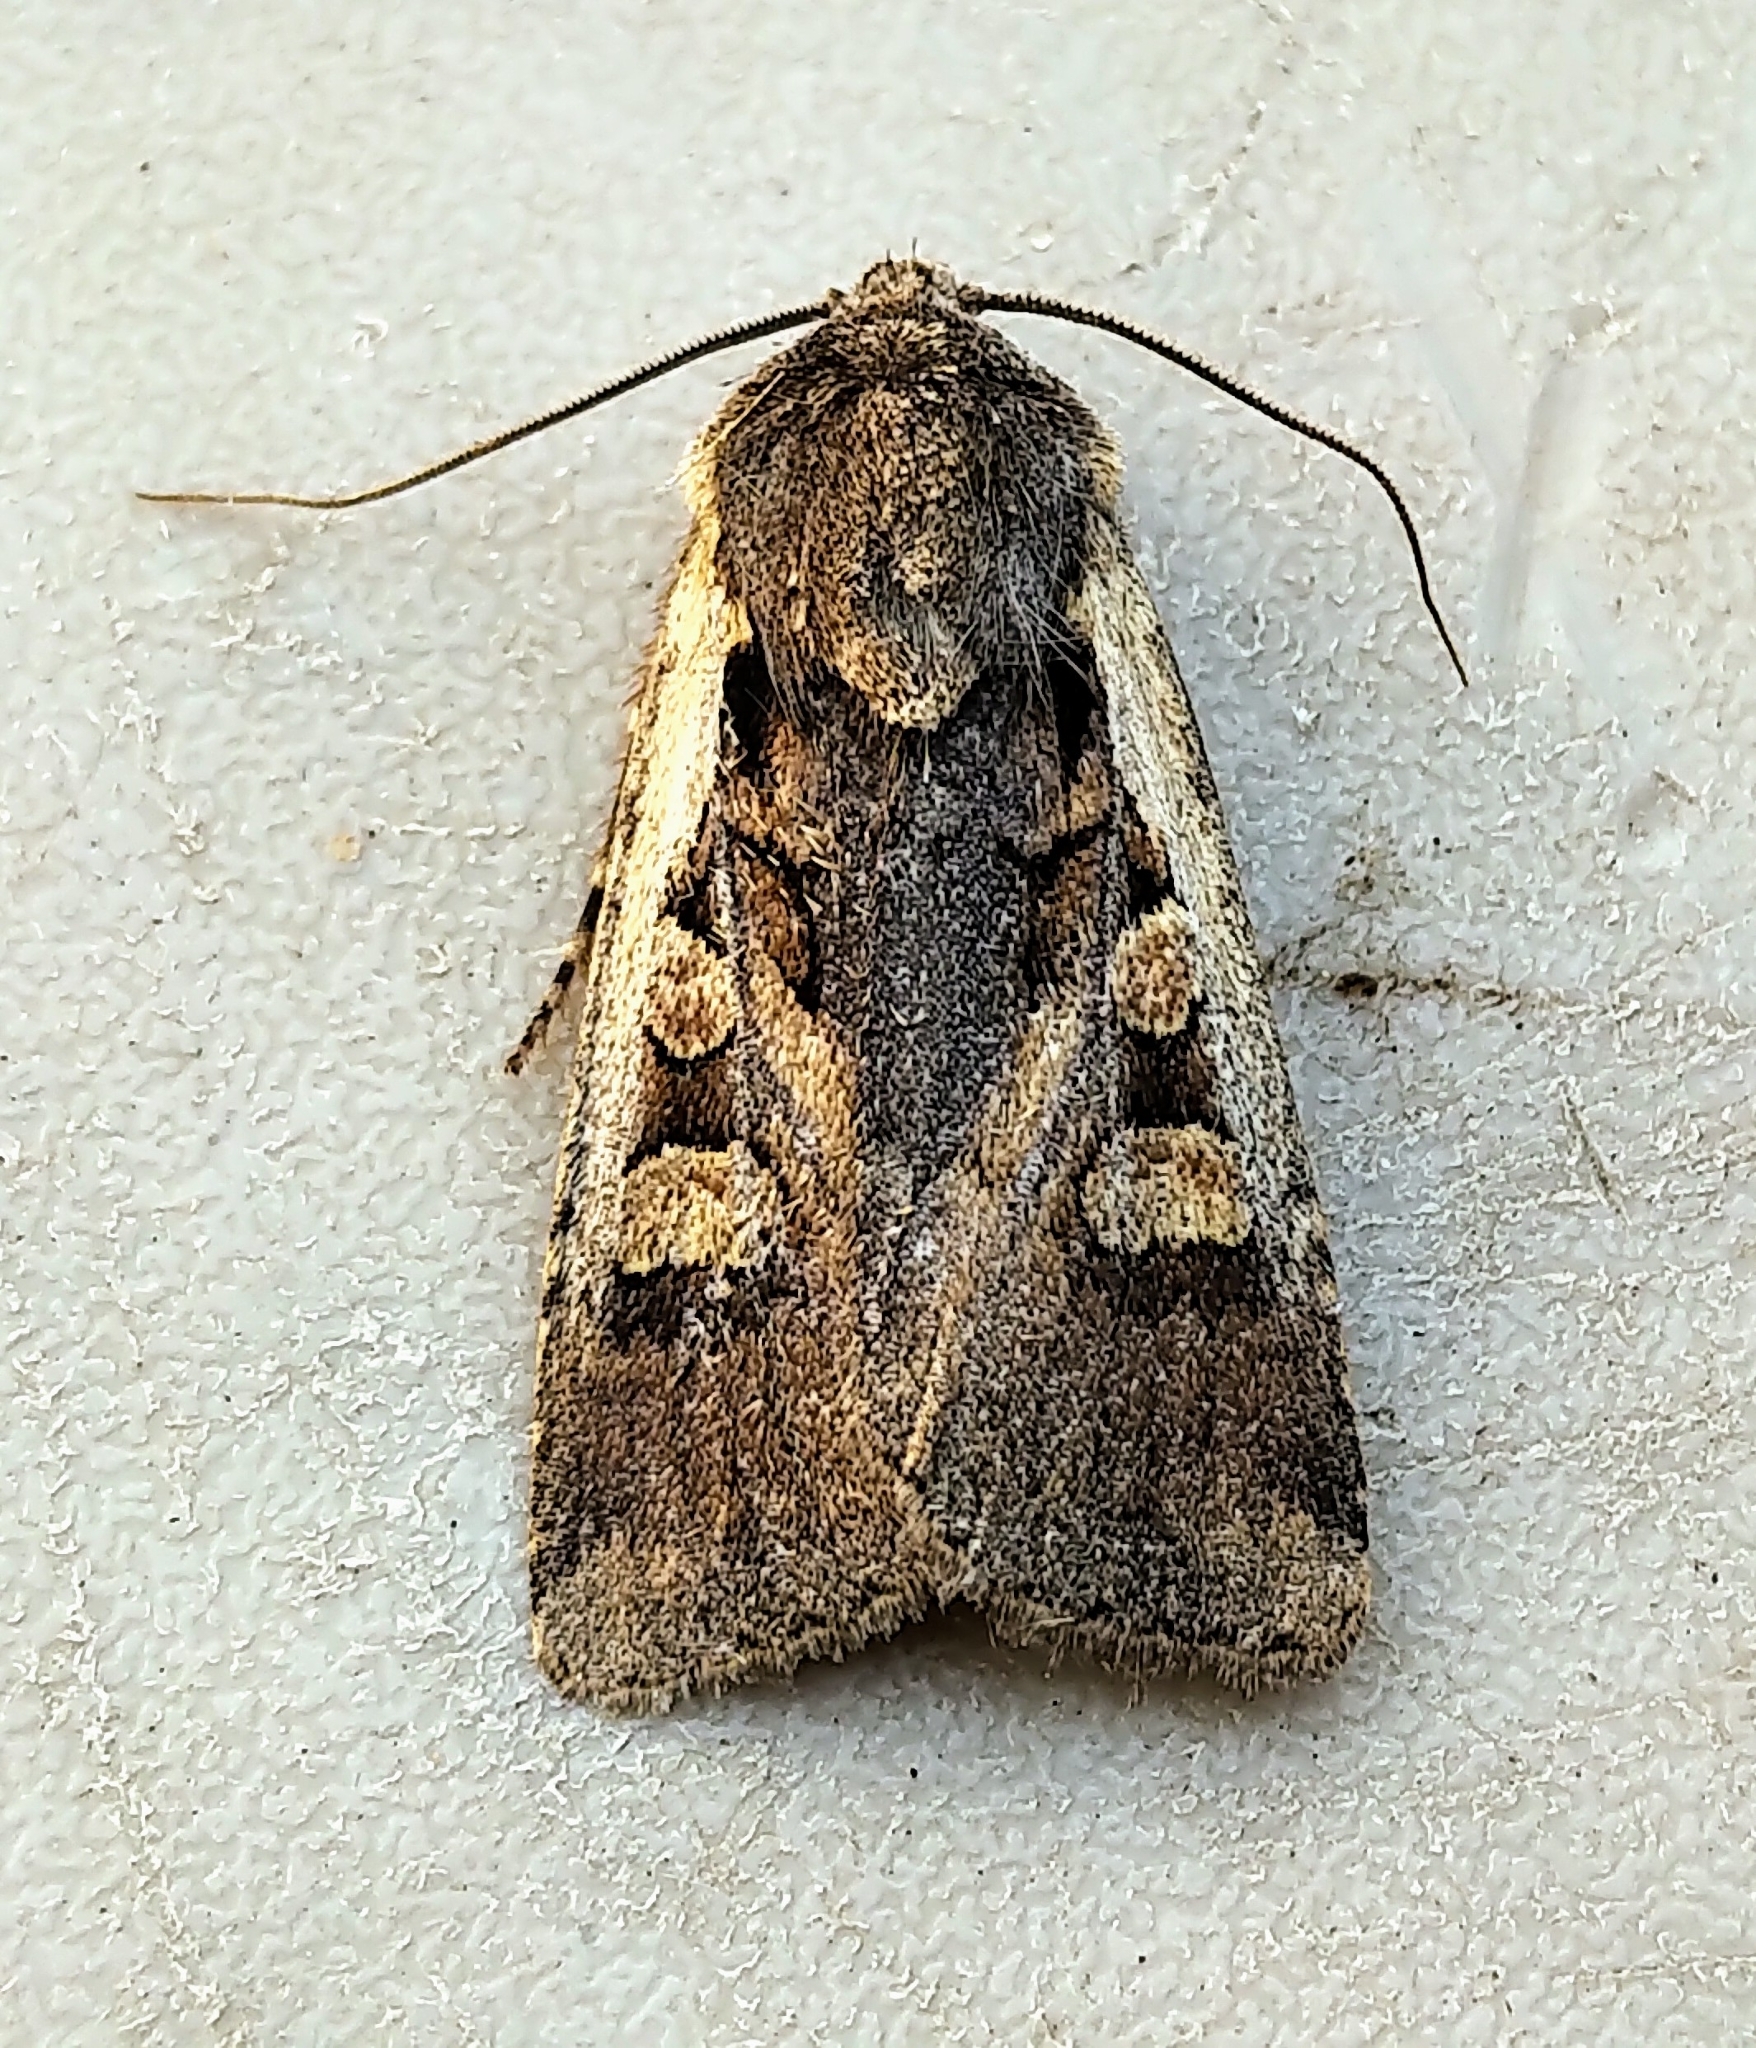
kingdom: Animalia
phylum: Arthropoda
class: Insecta
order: Lepidoptera
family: Noctuidae
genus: Euxoa
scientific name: Euxoa obeliscoides
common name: Obelisk dart moth
